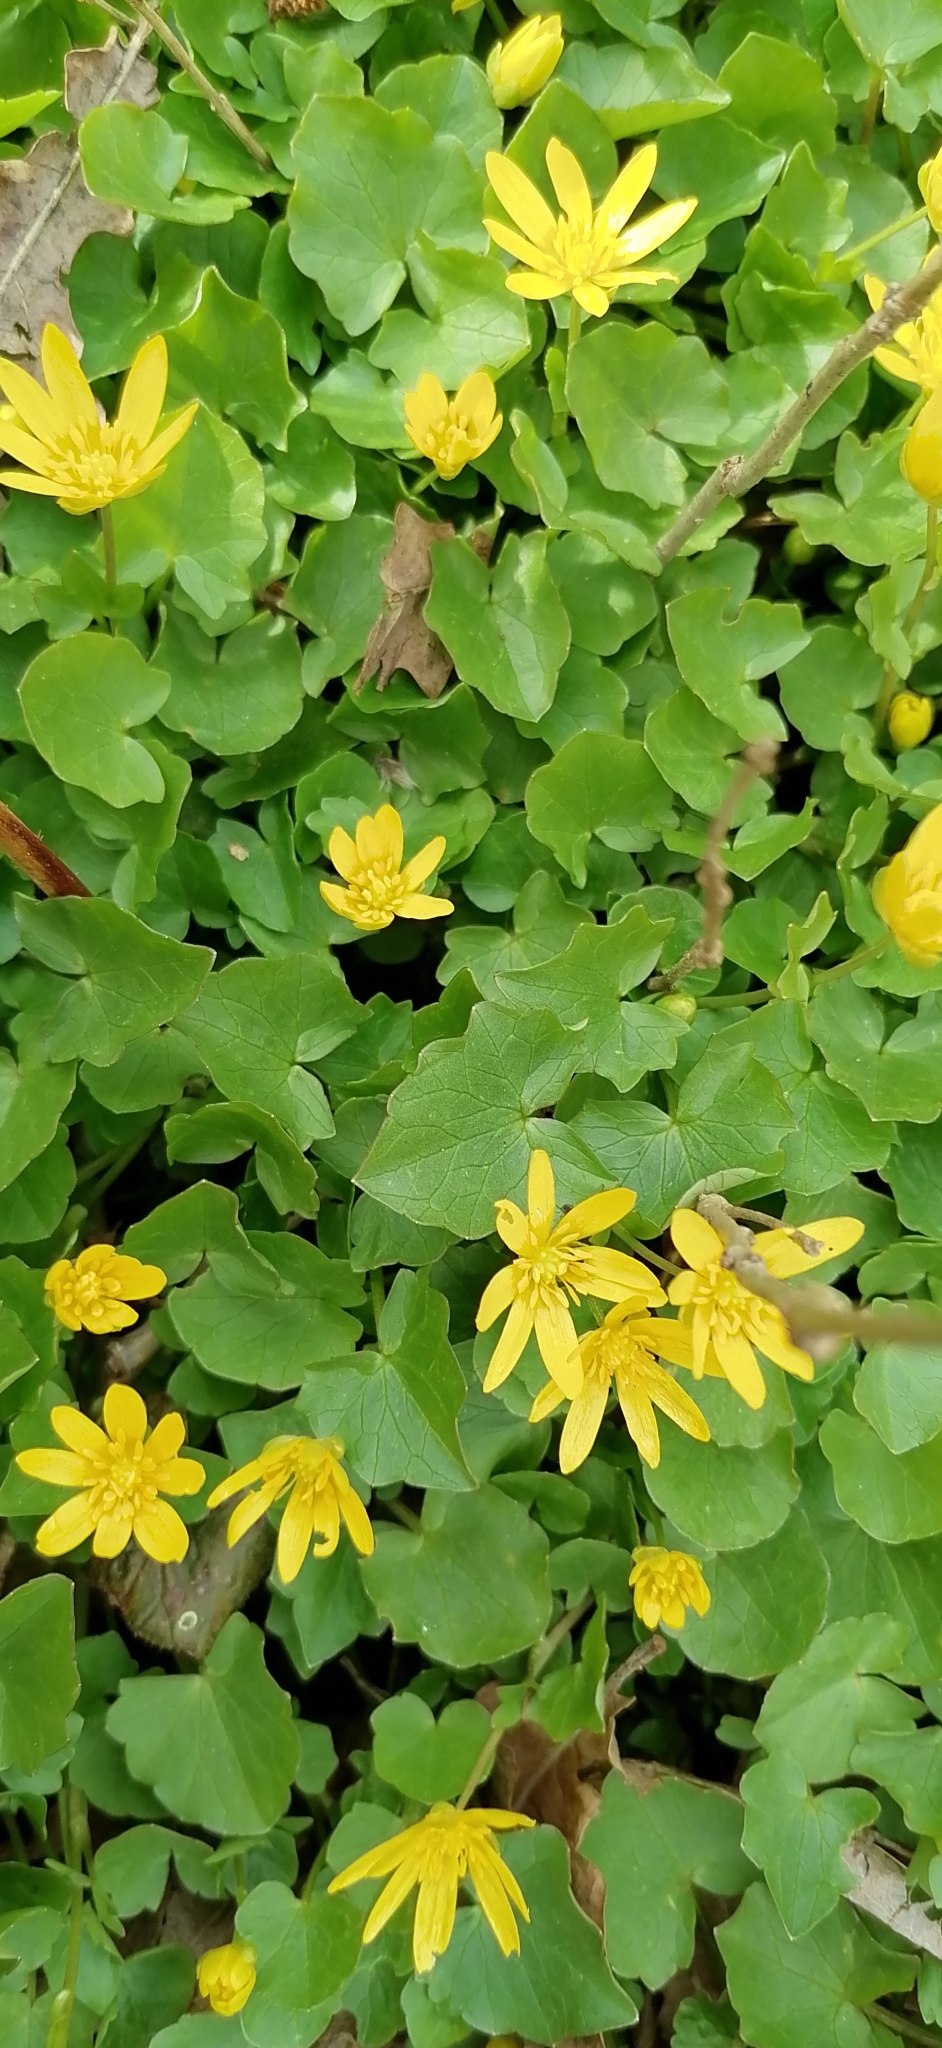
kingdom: Plantae
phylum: Tracheophyta
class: Magnoliopsida
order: Ranunculales
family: Ranunculaceae
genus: Ficaria
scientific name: Ficaria verna
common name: Lesser celandine
